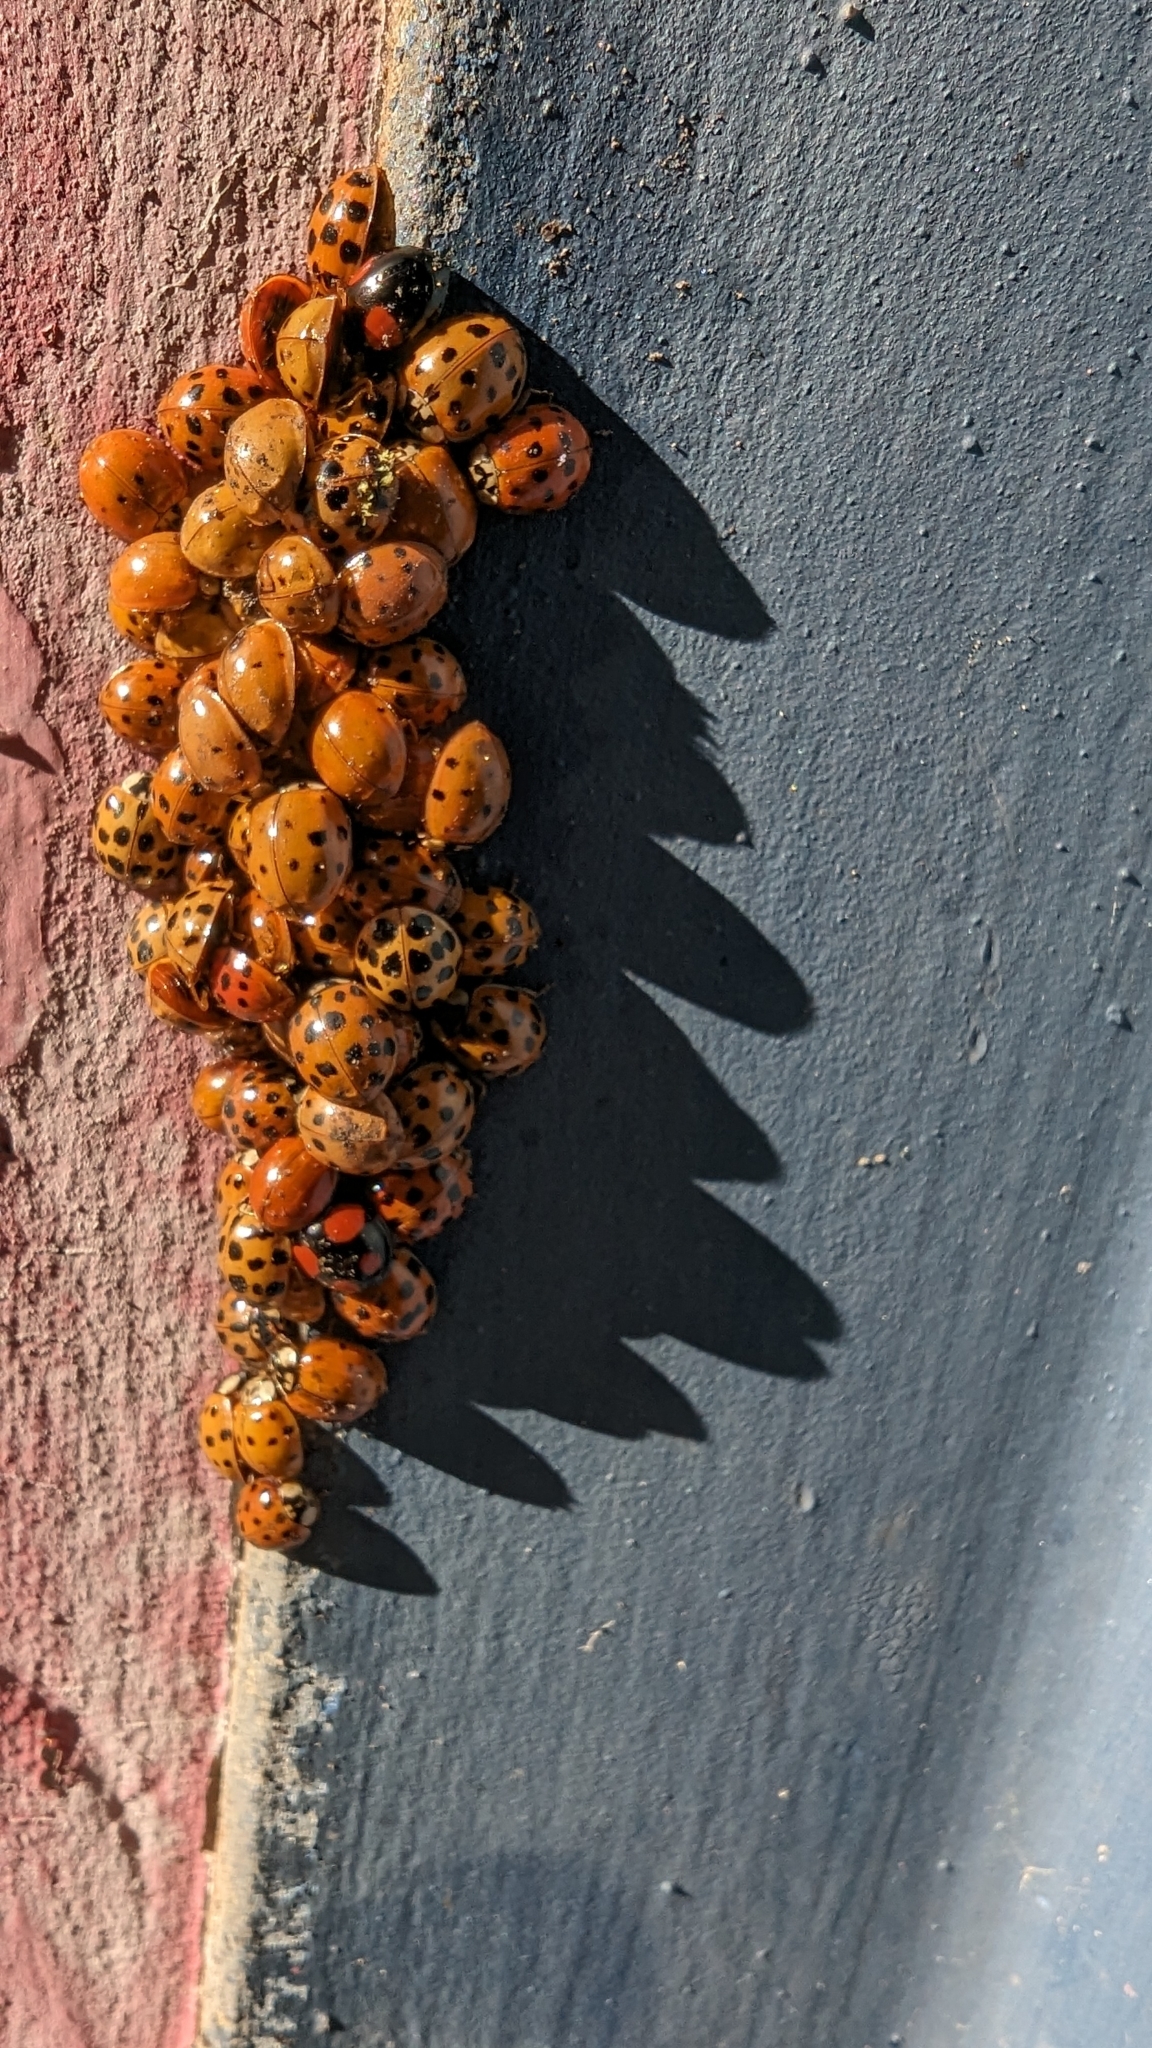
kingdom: Animalia
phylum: Arthropoda
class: Insecta
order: Coleoptera
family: Coccinellidae
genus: Harmonia
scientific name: Harmonia axyridis
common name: Harlequin ladybird
